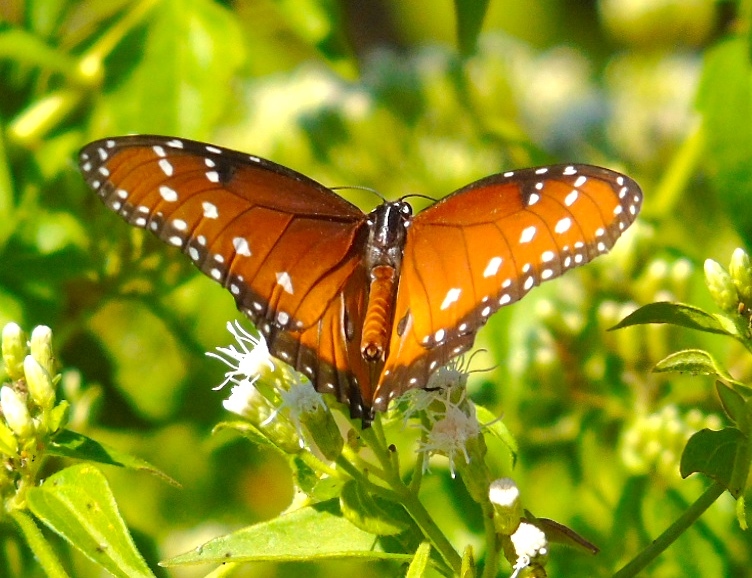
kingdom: Animalia
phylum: Arthropoda
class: Insecta
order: Lepidoptera
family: Nymphalidae
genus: Danaus
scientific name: Danaus gilippus
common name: Queen
